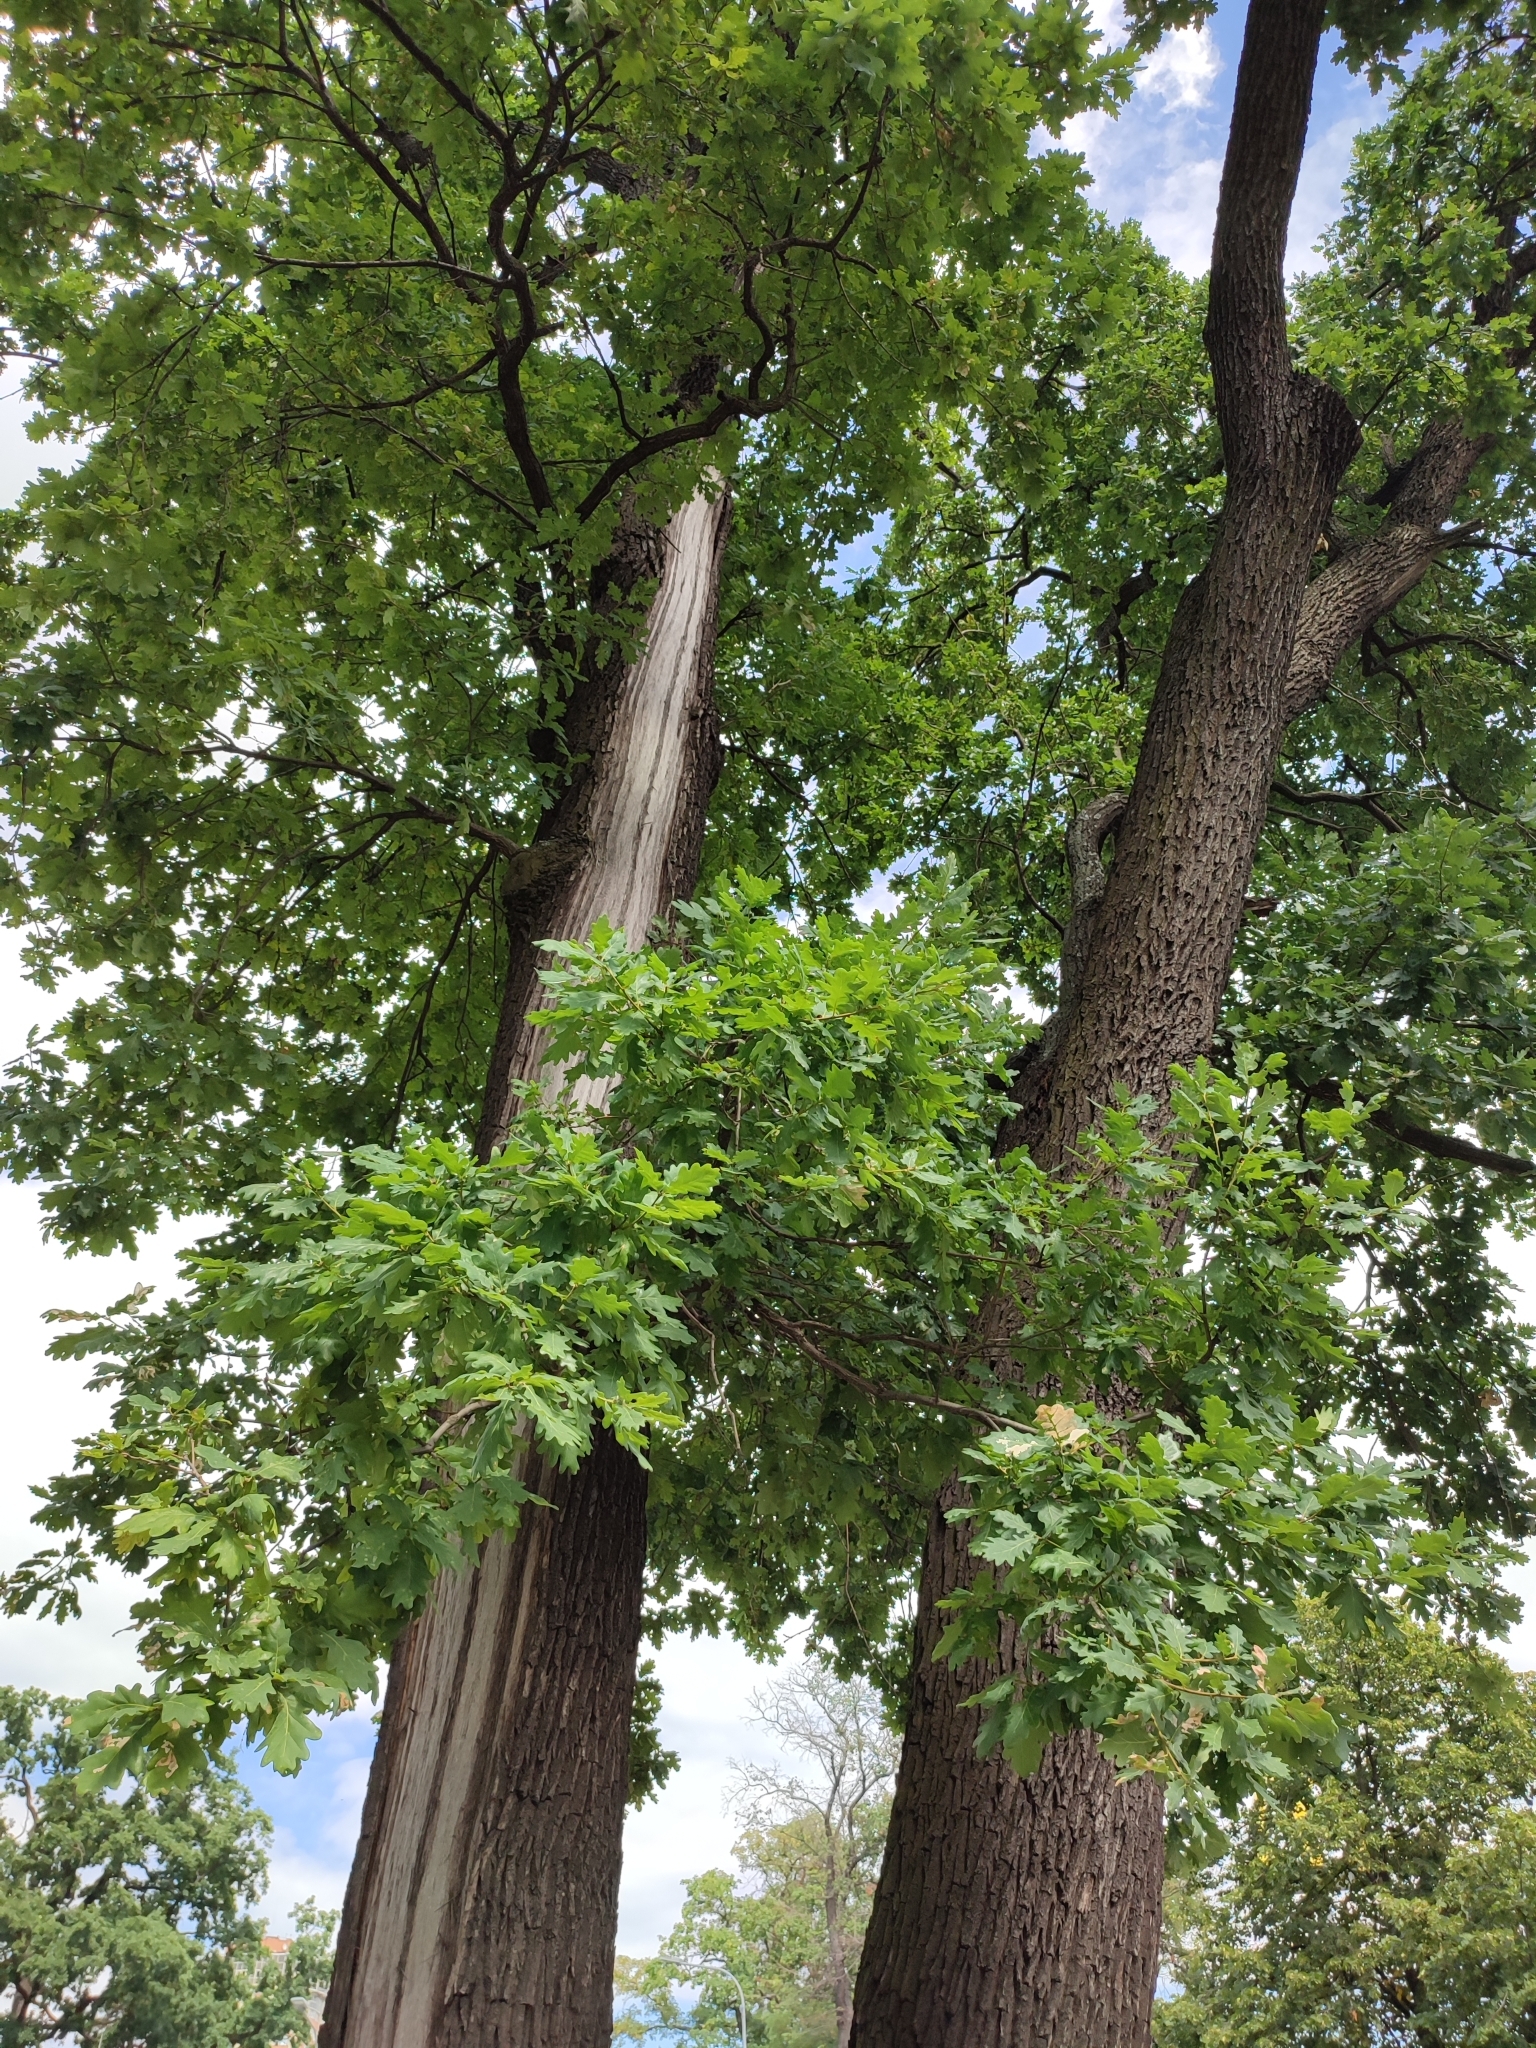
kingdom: Plantae
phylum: Tracheophyta
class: Magnoliopsida
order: Fagales
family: Fagaceae
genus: Quercus
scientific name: Quercus robur
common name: Pedunculate oak
